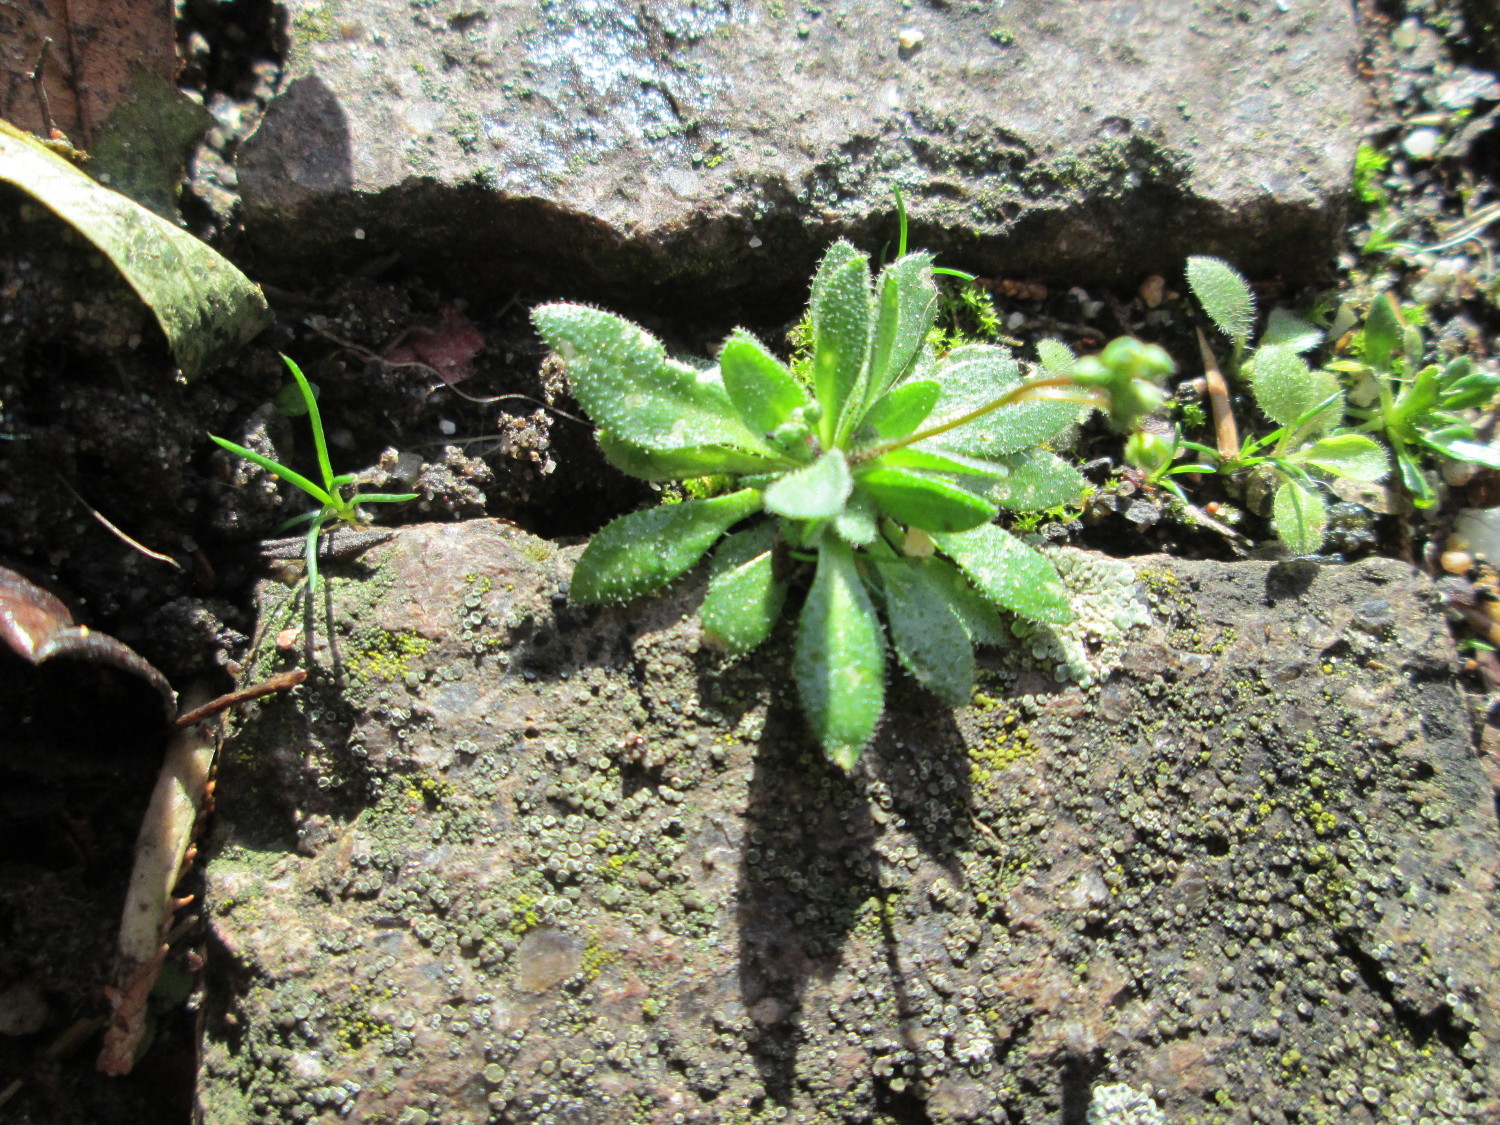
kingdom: Plantae
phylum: Tracheophyta
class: Magnoliopsida
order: Brassicales
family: Brassicaceae
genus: Draba
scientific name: Draba verna
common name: Spring draba
